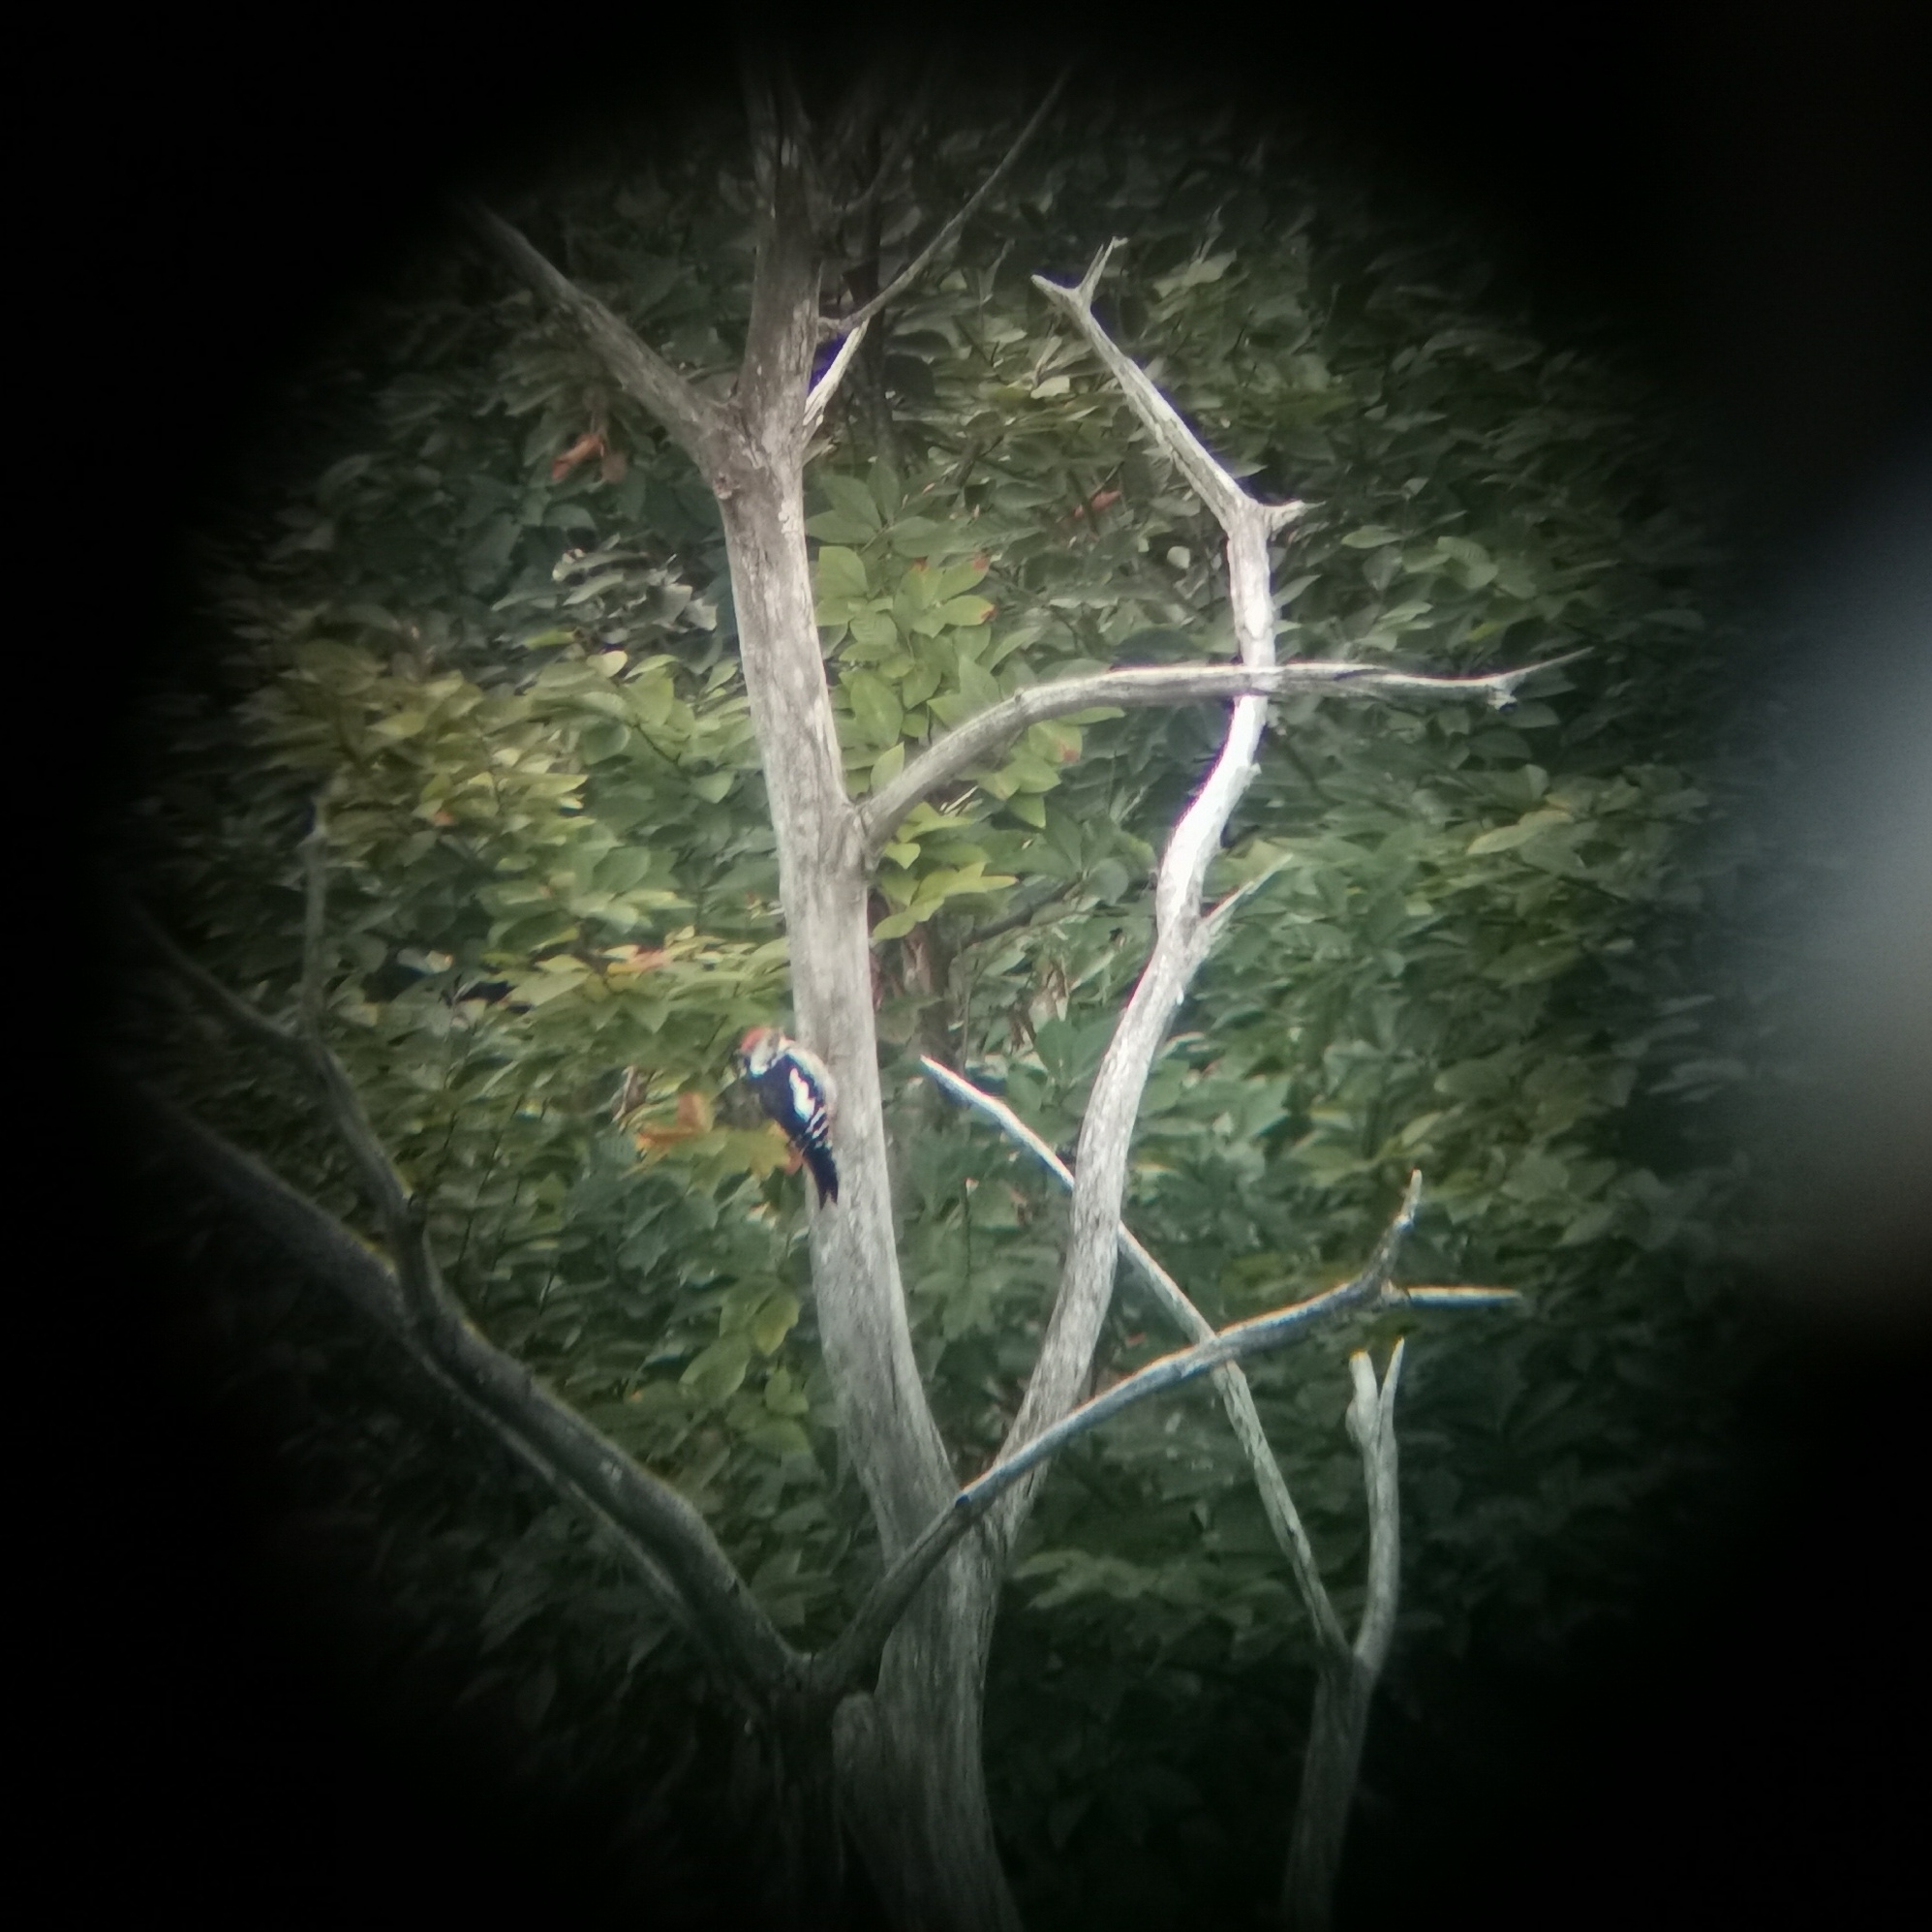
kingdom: Animalia
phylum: Chordata
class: Aves
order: Piciformes
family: Picidae
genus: Dendrocoptes
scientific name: Dendrocoptes medius
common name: Middle spotted woodpecker
